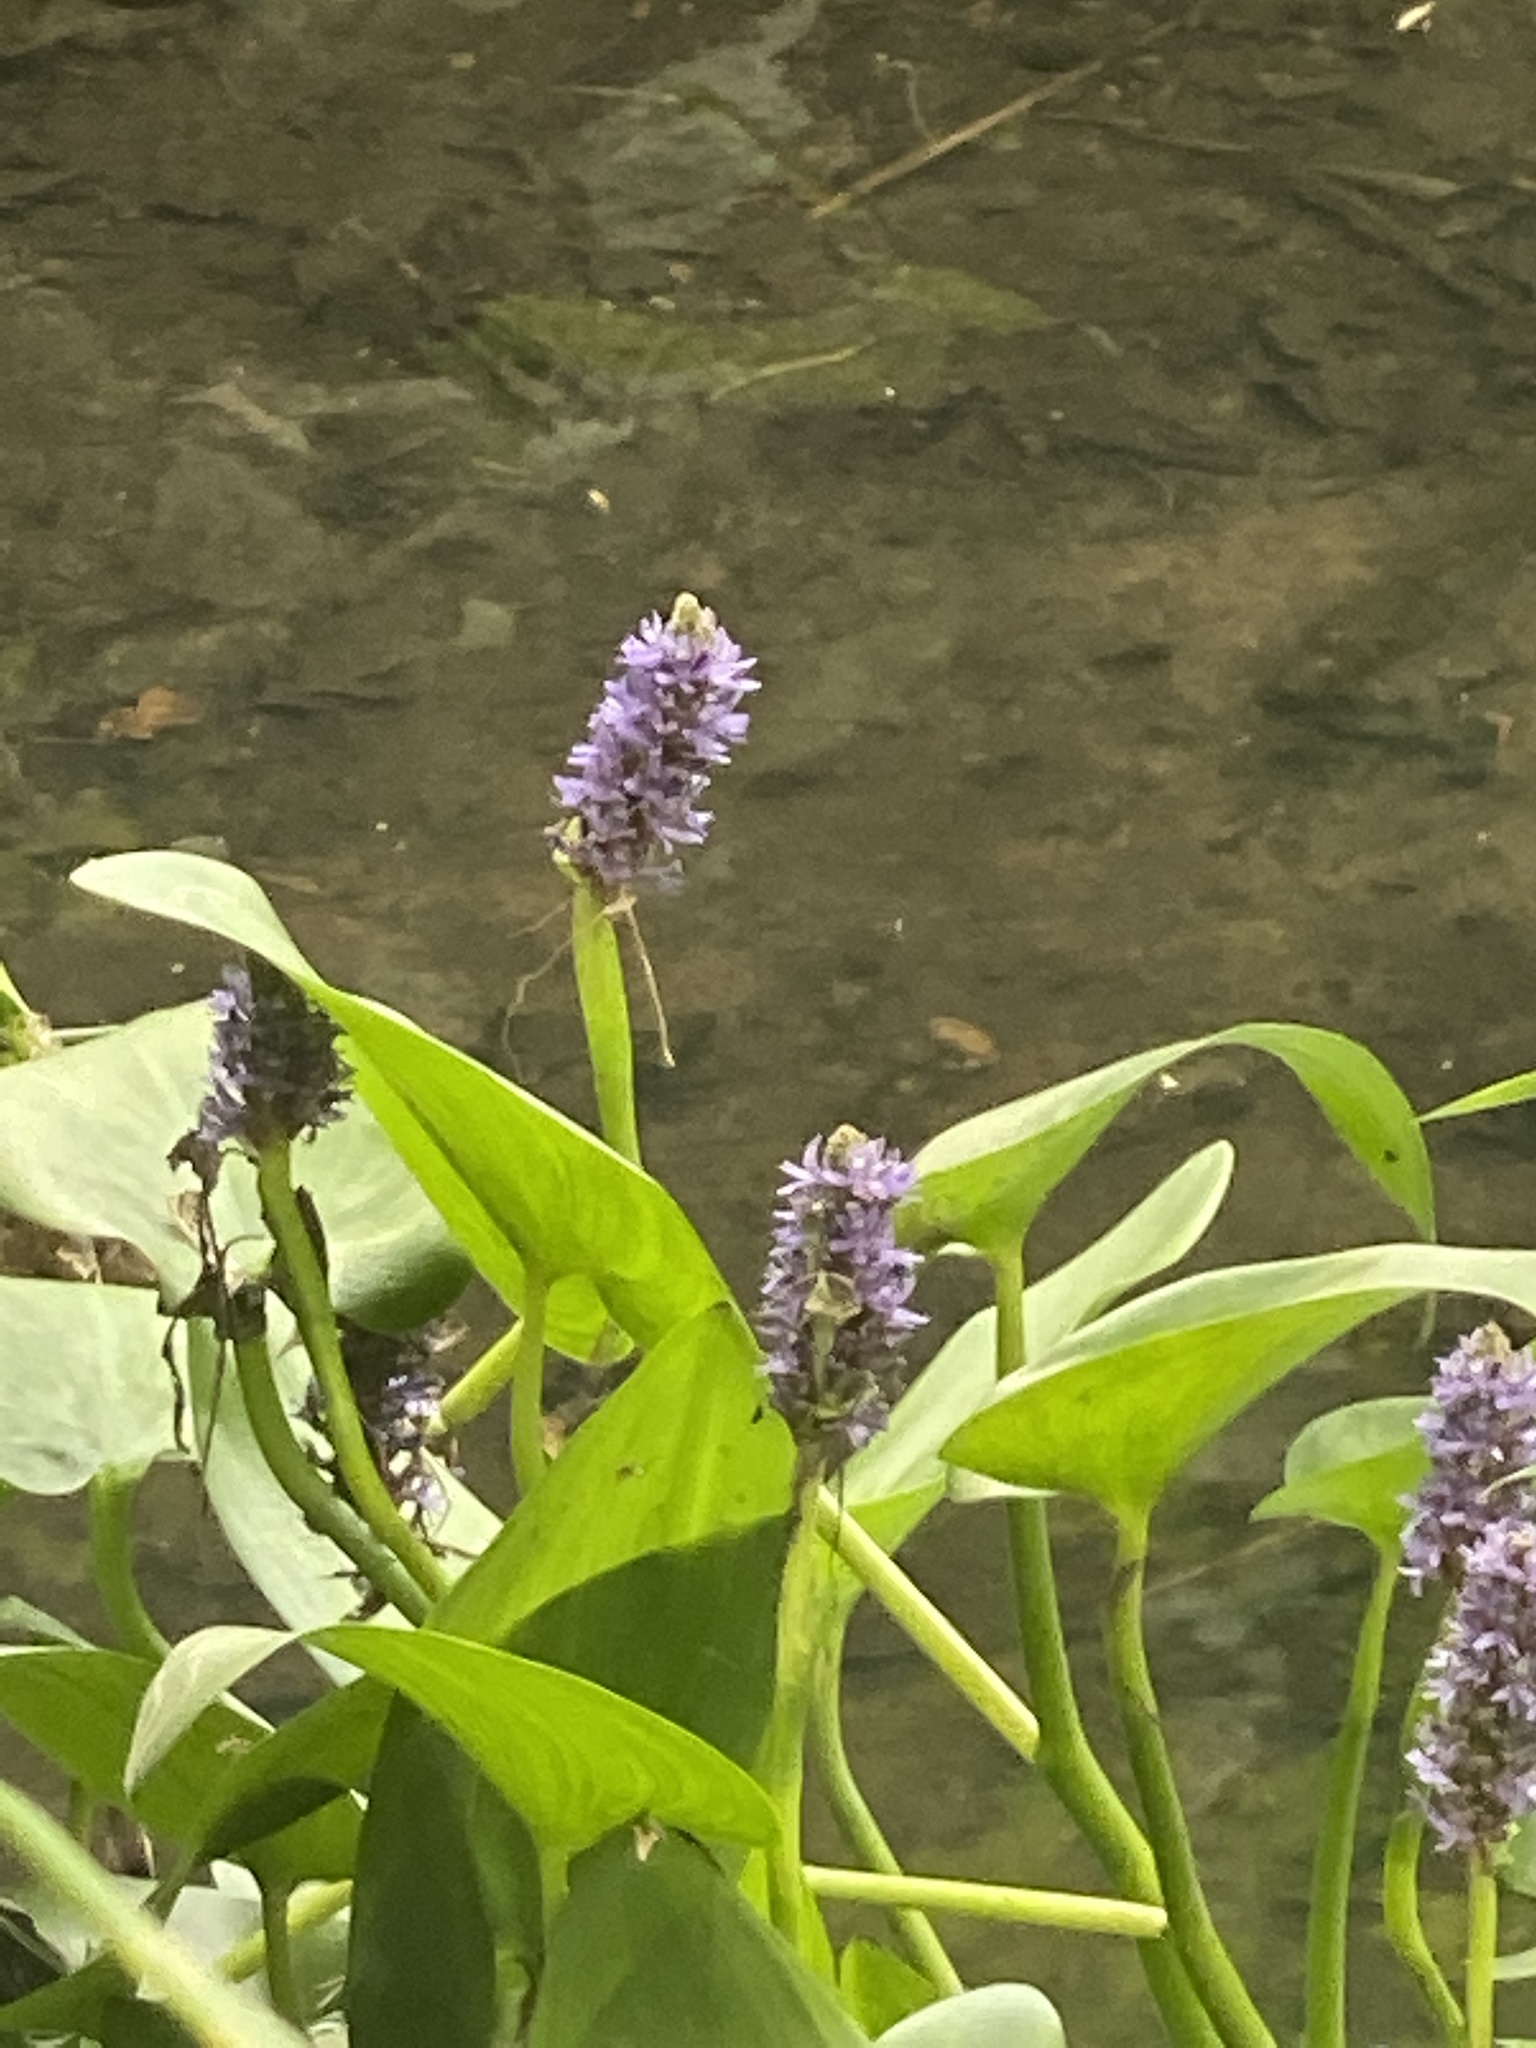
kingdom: Plantae
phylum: Tracheophyta
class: Liliopsida
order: Commelinales
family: Pontederiaceae
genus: Pontederia
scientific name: Pontederia cordata
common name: Pickerelweed
